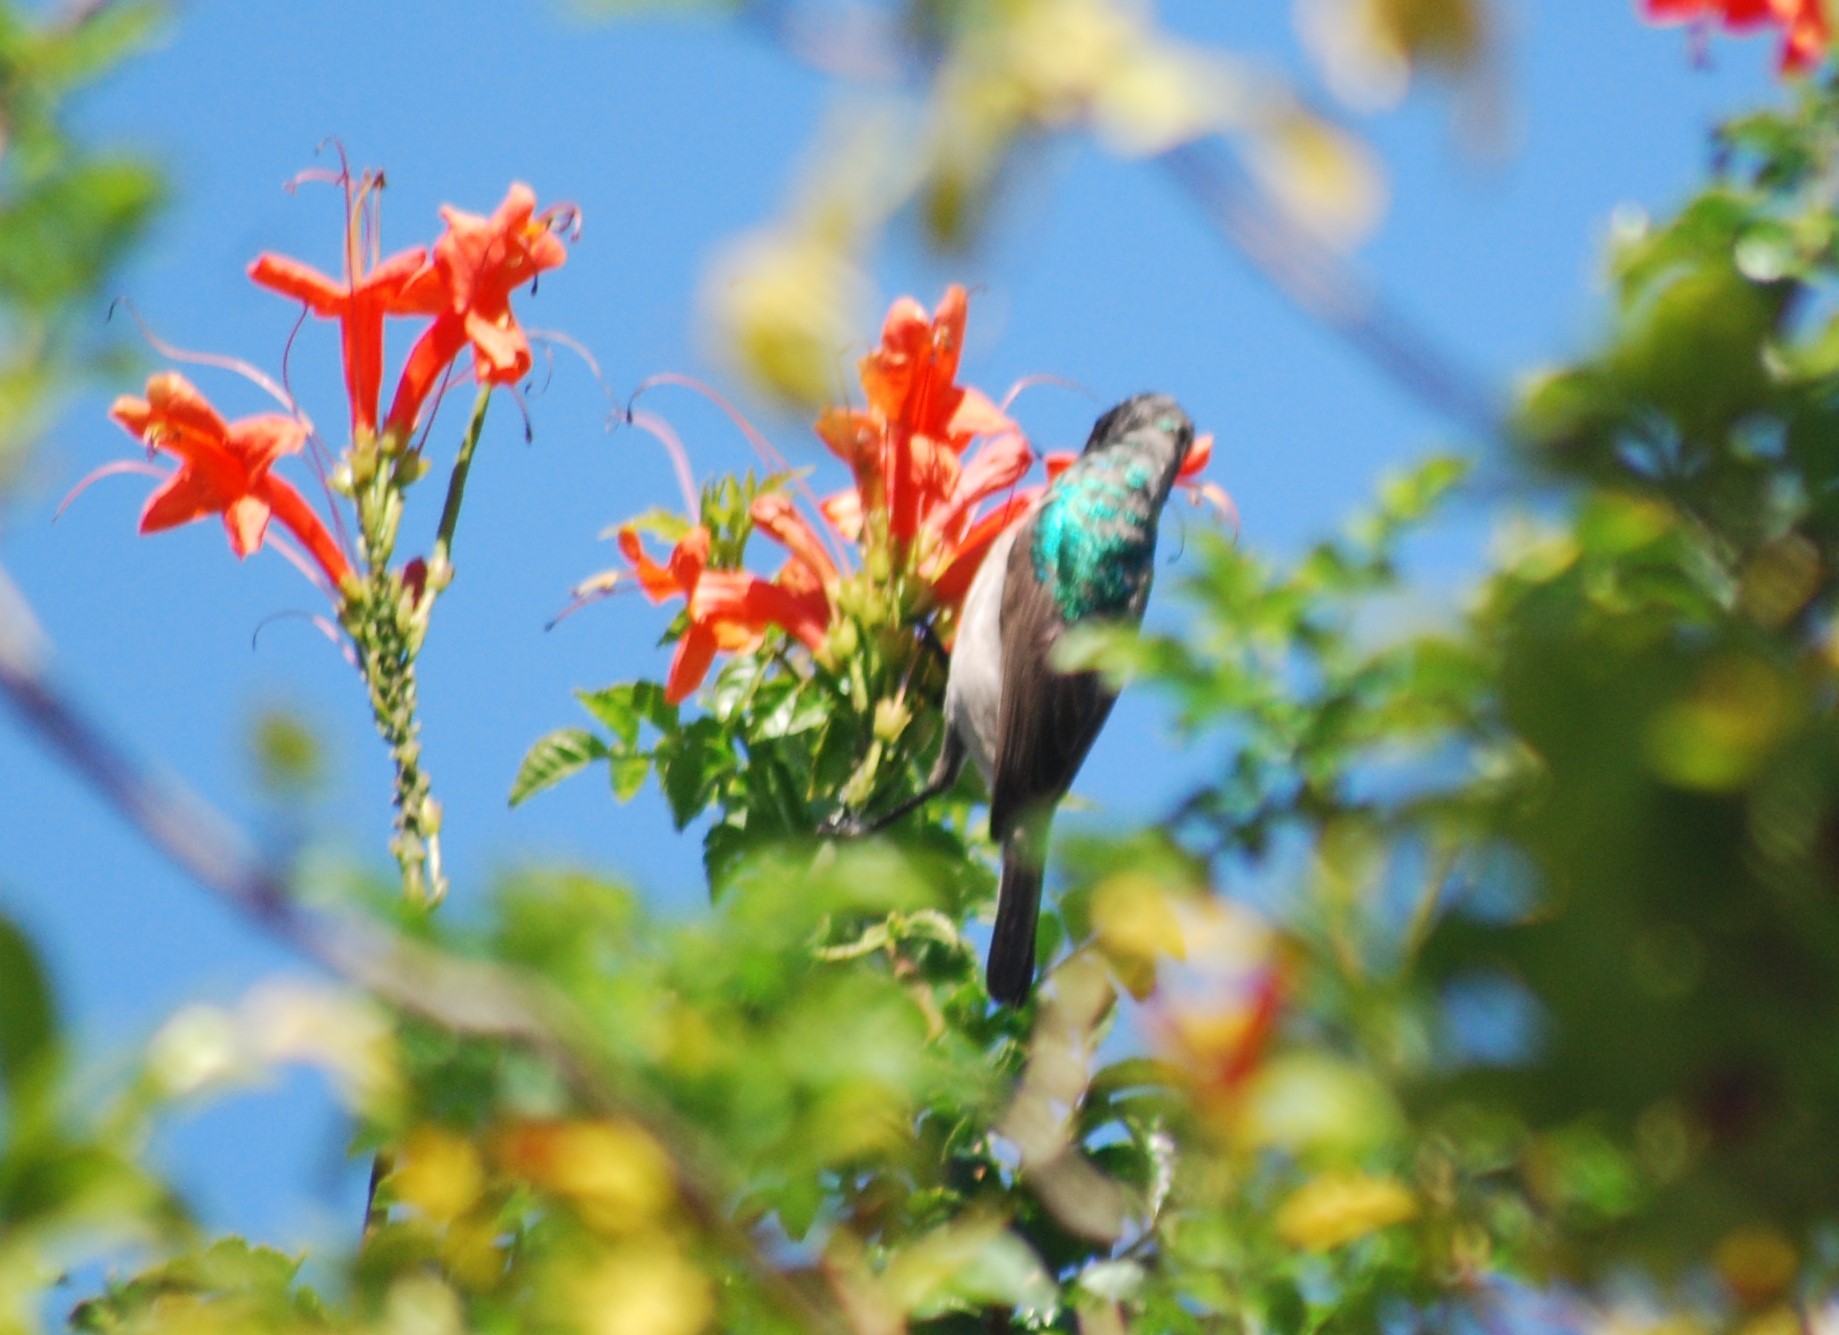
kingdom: Animalia
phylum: Chordata
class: Aves
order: Passeriformes
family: Nectariniidae
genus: Cinnyris
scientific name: Cinnyris chalybeus
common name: Southern double-collared sunbird
